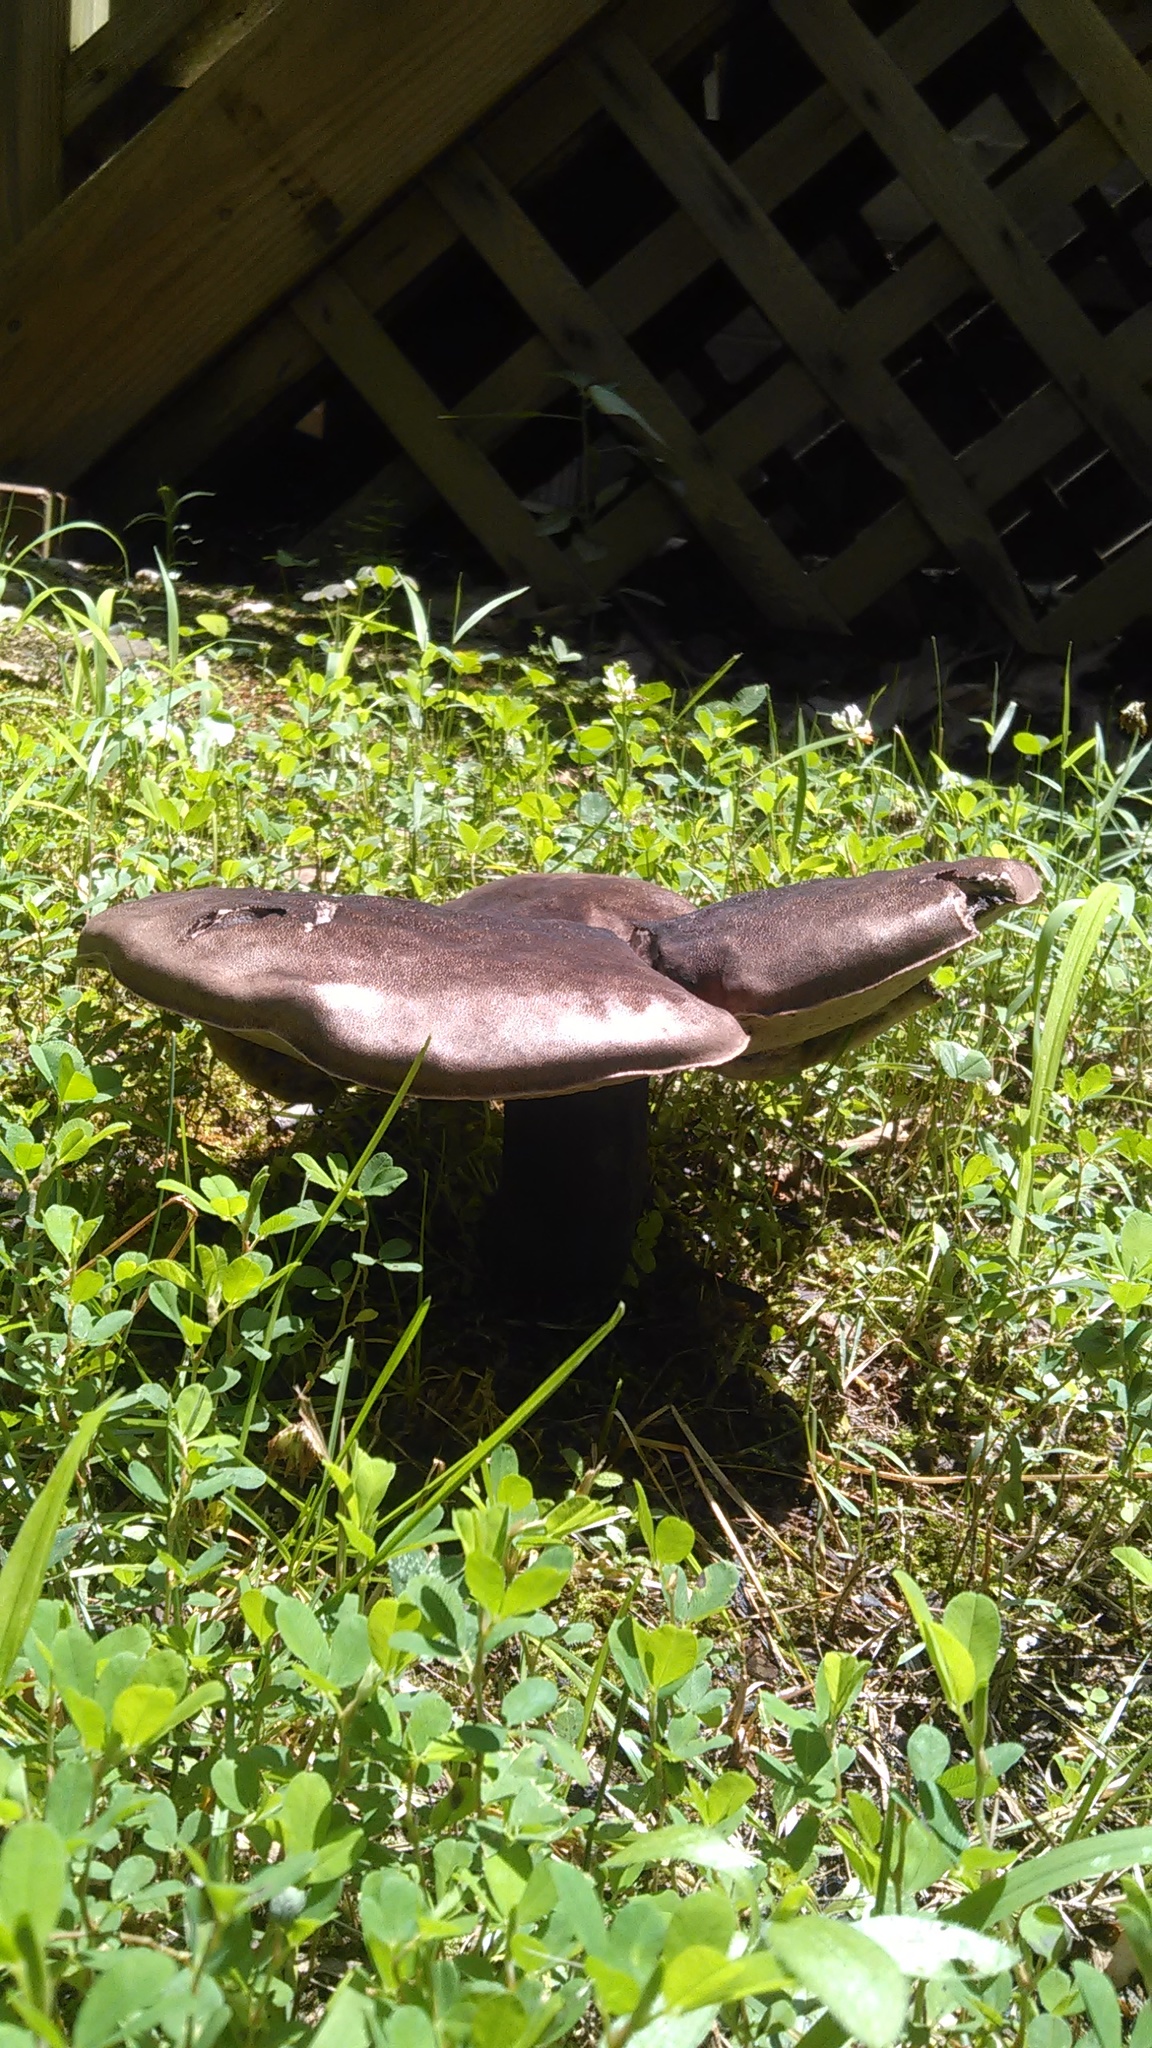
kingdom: Fungi
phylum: Basidiomycota
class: Agaricomycetes
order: Boletales
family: Boletaceae
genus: Tylopilus
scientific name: Tylopilus alboater
